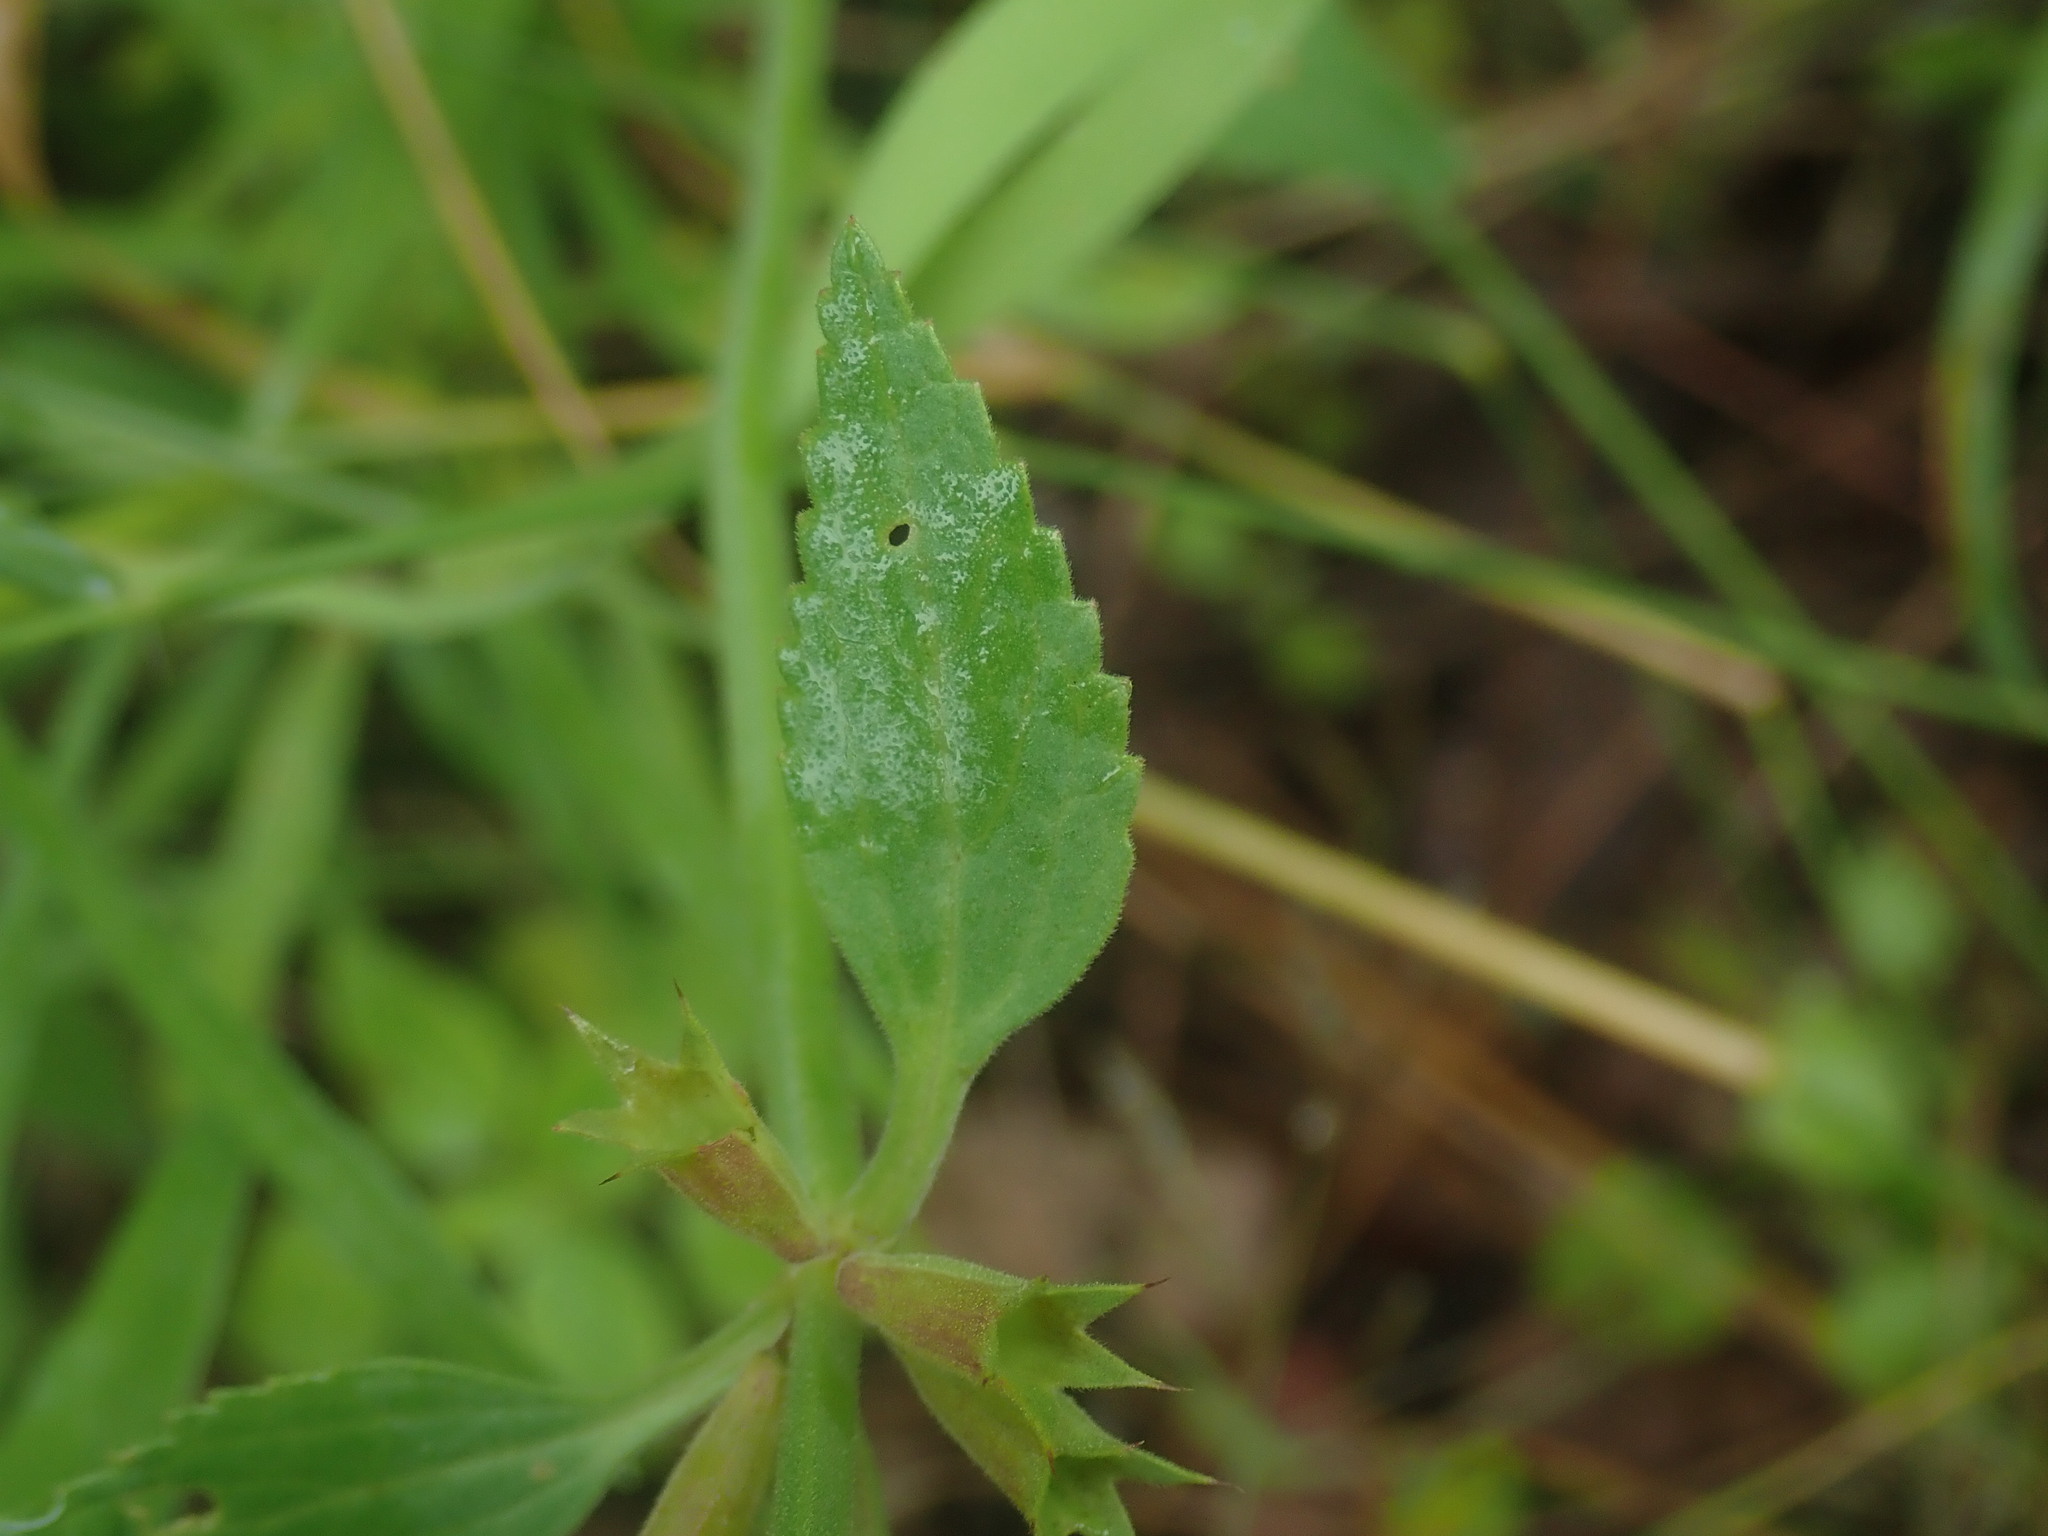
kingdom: Plantae
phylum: Tracheophyta
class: Magnoliopsida
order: Lamiales
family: Lamiaceae
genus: Stachys
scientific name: Stachys coccinea
